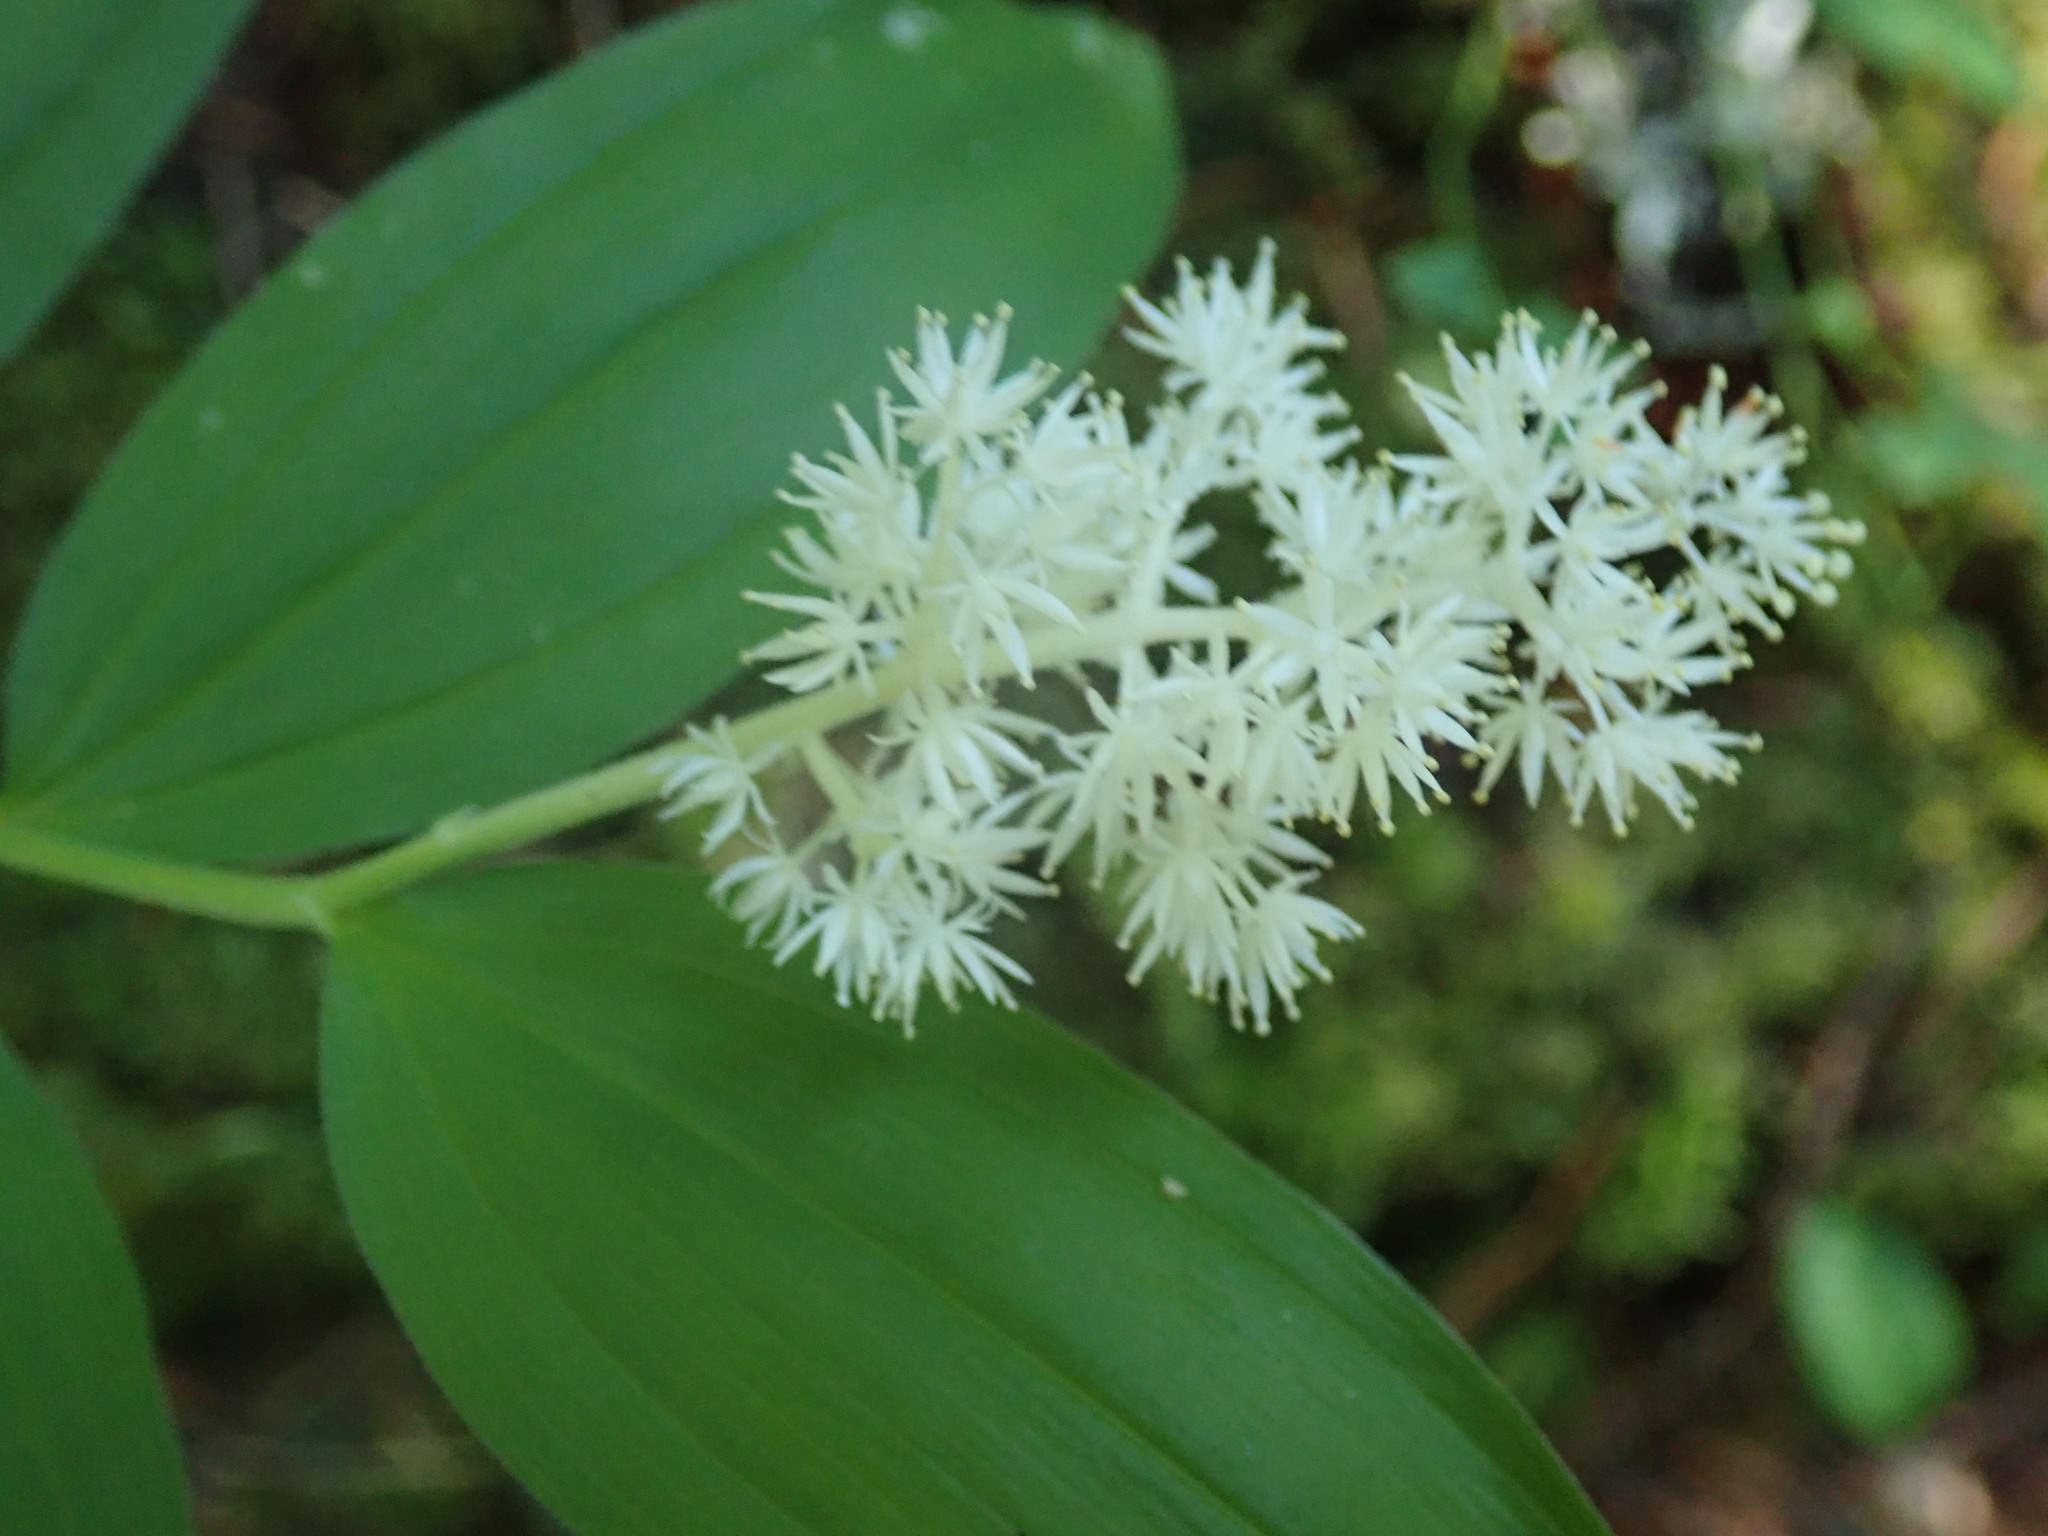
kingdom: Plantae
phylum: Tracheophyta
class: Liliopsida
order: Asparagales
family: Asparagaceae
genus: Maianthemum
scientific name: Maianthemum racemosum
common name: False spikenard
